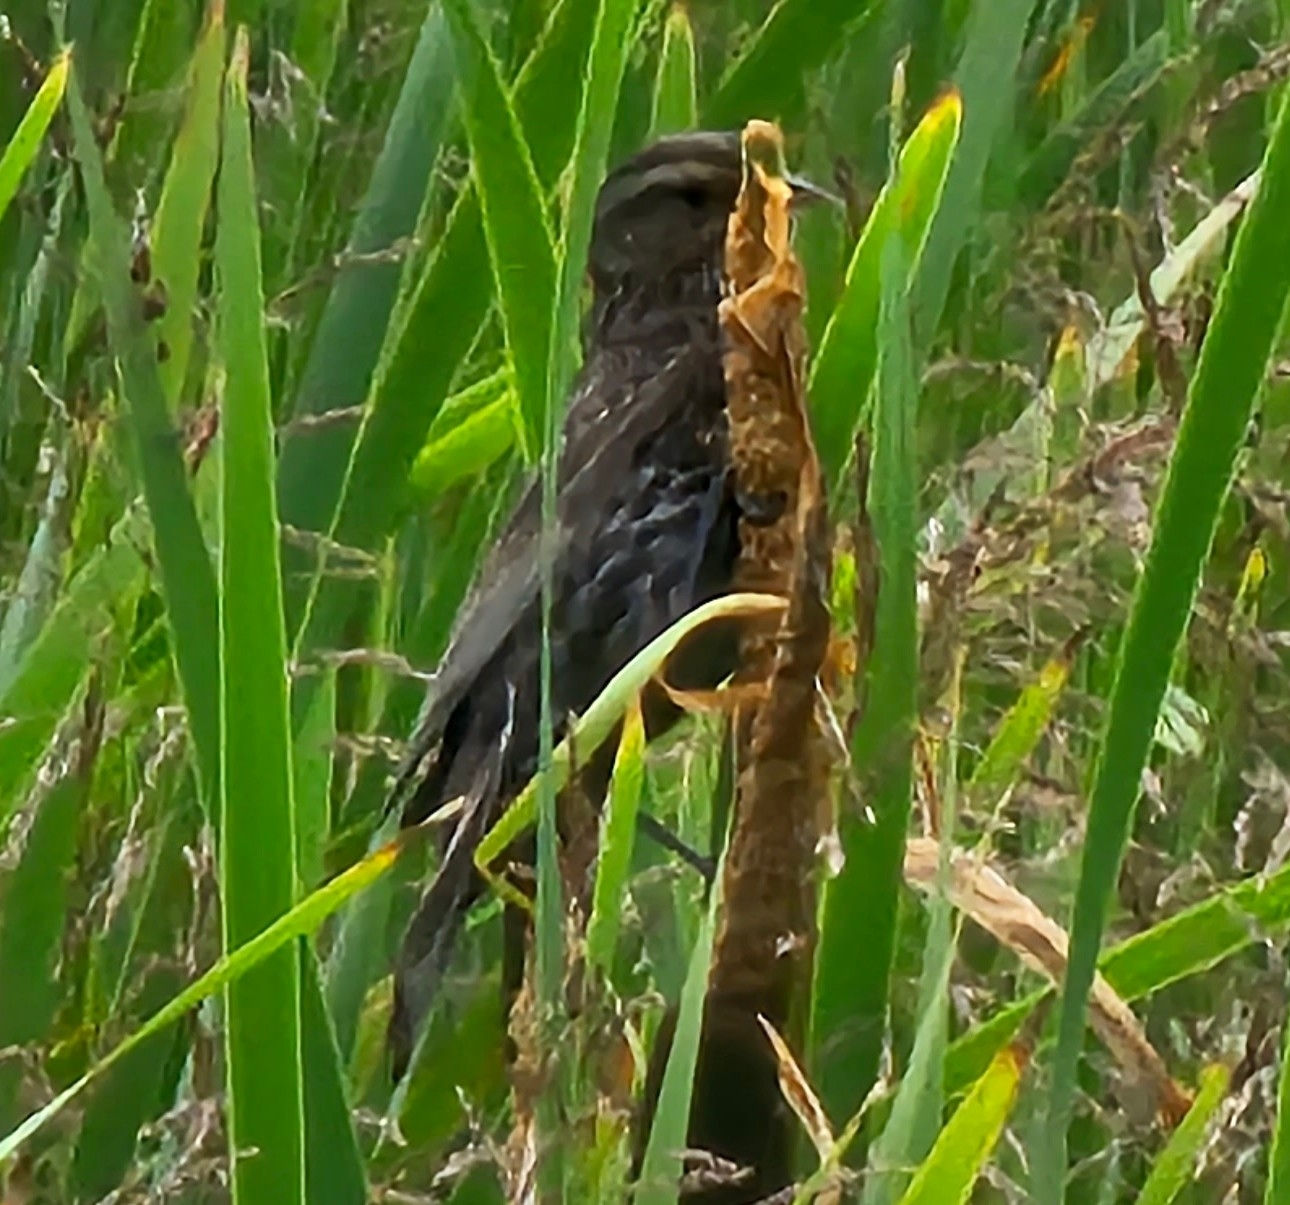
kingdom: Animalia
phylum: Chordata
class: Aves
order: Passeriformes
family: Icteridae
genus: Agelaius
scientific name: Agelaius phoeniceus
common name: Red-winged blackbird
